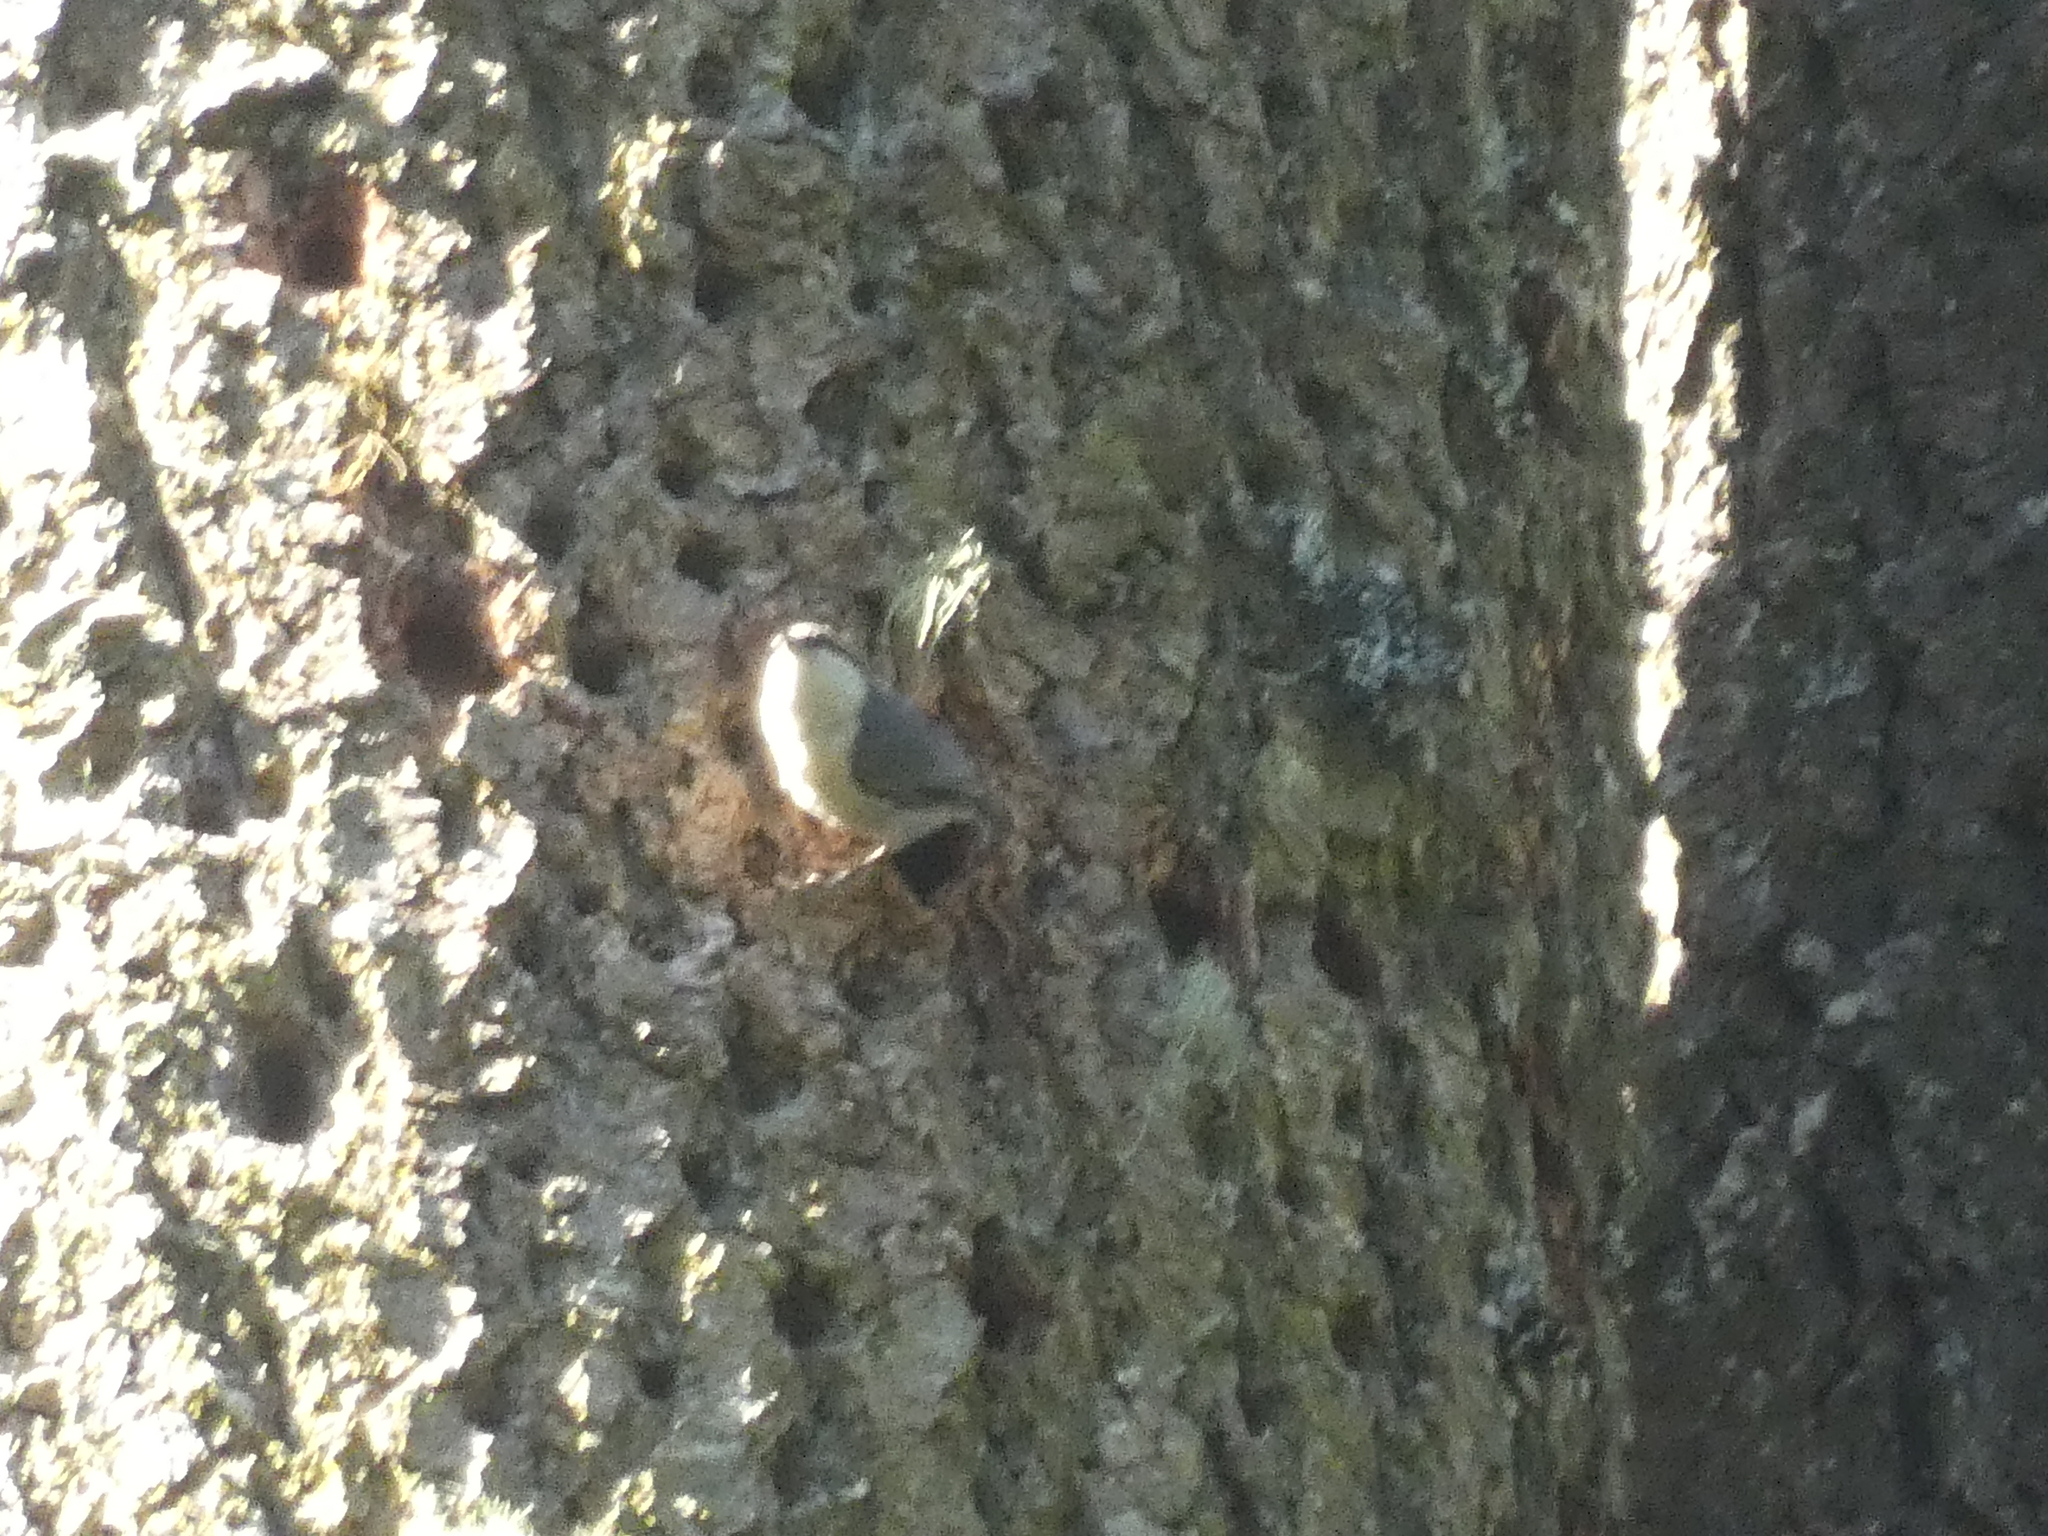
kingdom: Animalia
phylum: Chordata
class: Aves
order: Passeriformes
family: Sittidae
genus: Sitta
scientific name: Sitta pygmaea
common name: Pygmy nuthatch
